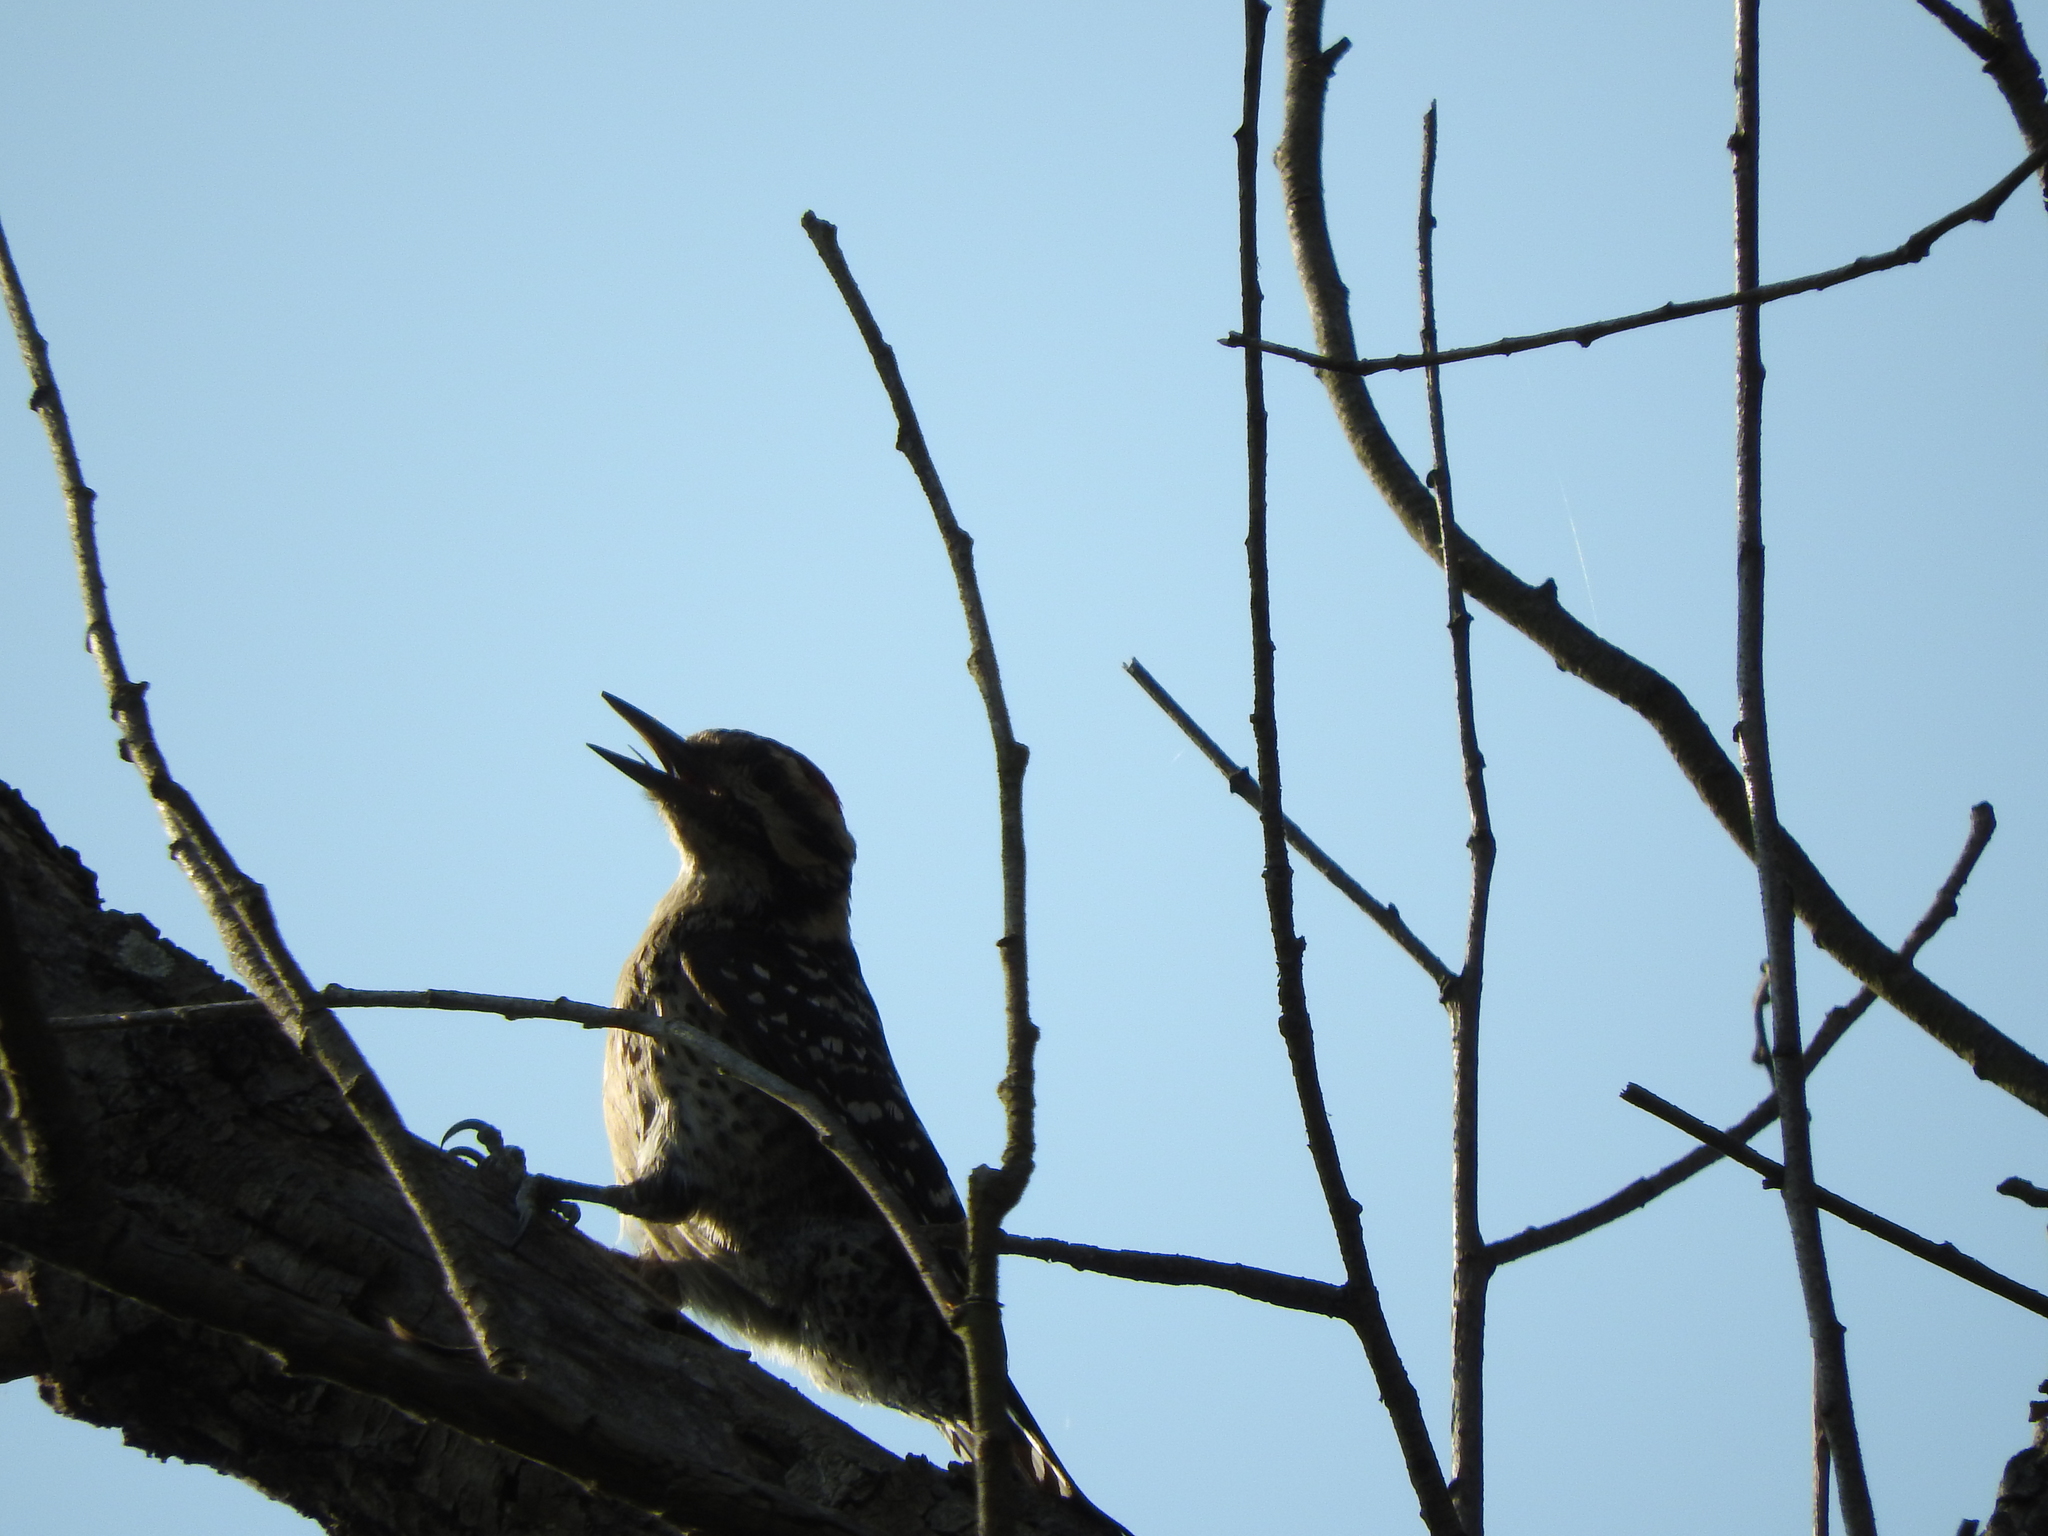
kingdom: Animalia
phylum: Chordata
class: Aves
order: Piciformes
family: Picidae
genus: Dryobates
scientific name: Dryobates scalaris
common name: Ladder-backed woodpecker
